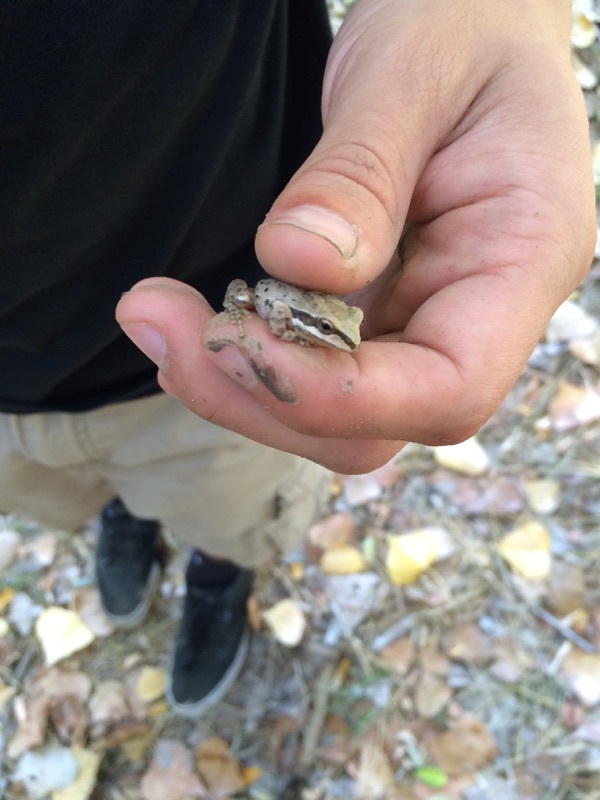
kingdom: Animalia
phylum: Chordata
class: Amphibia
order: Anura
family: Hylidae
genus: Pseudacris
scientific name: Pseudacris regilla
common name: Pacific chorus frog
